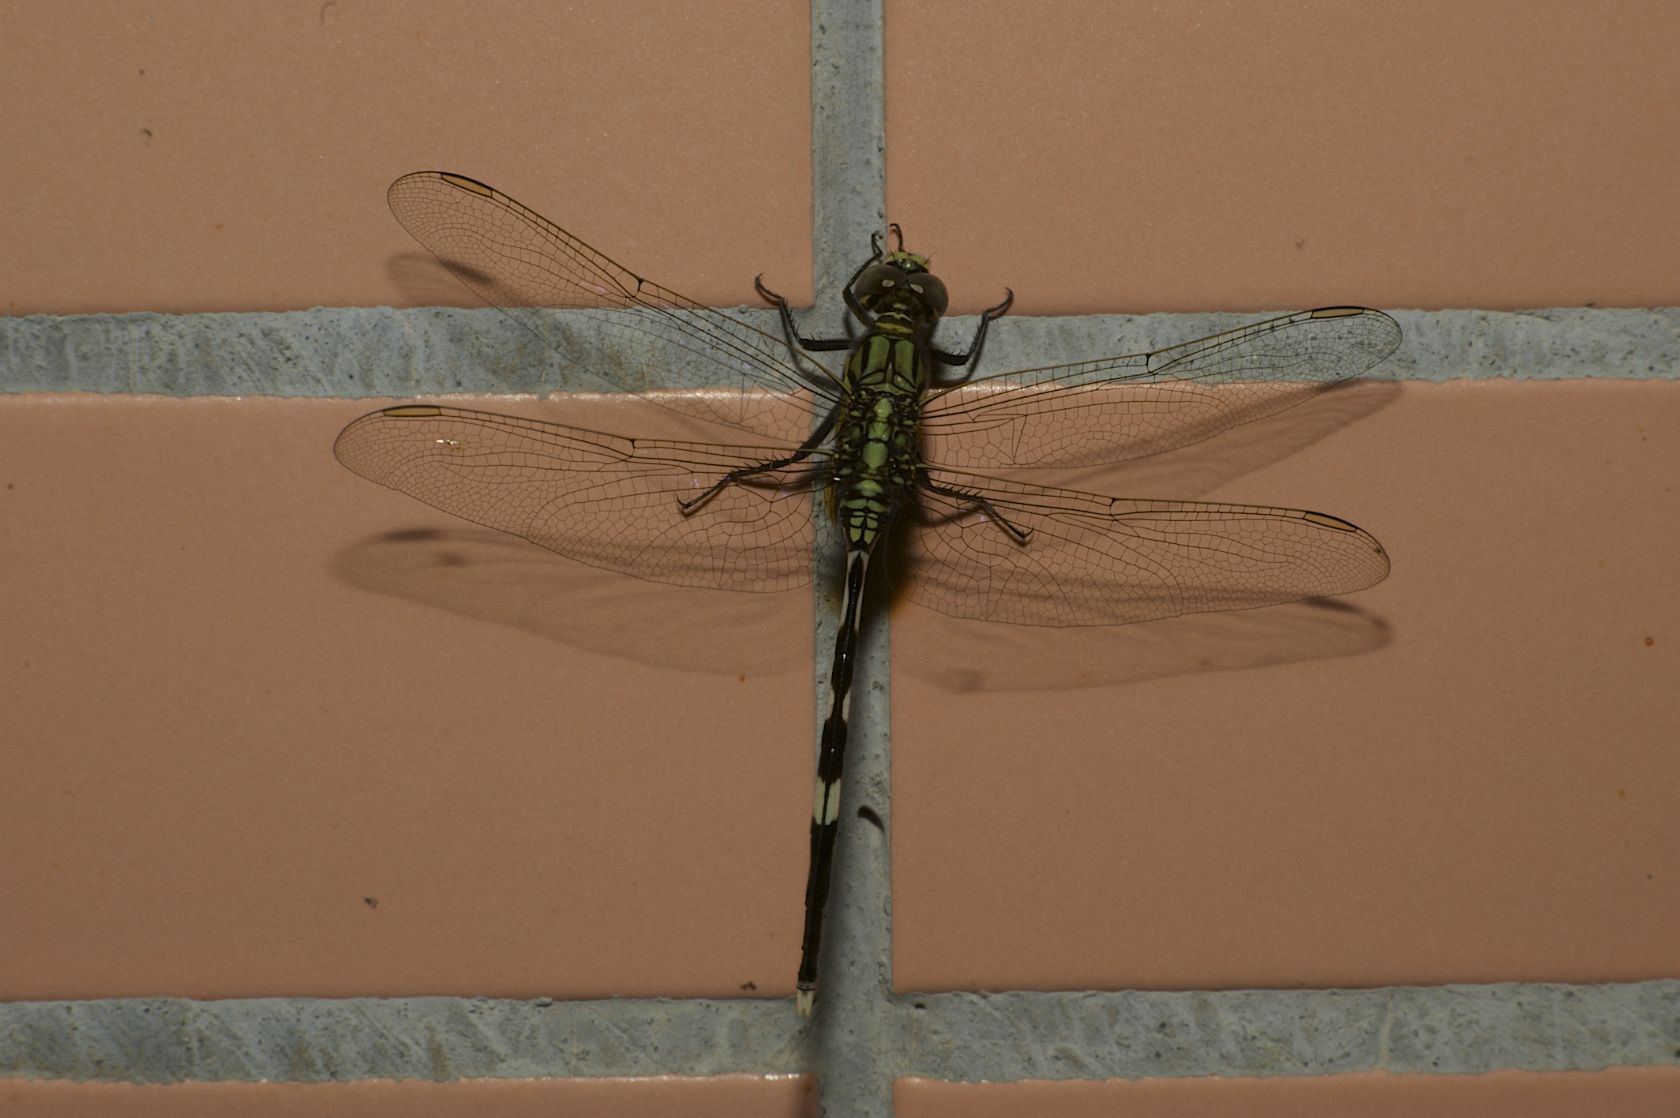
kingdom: Animalia
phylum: Arthropoda
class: Insecta
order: Odonata
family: Libellulidae
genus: Orthetrum
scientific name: Orthetrum sabina
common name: Slender skimmer
